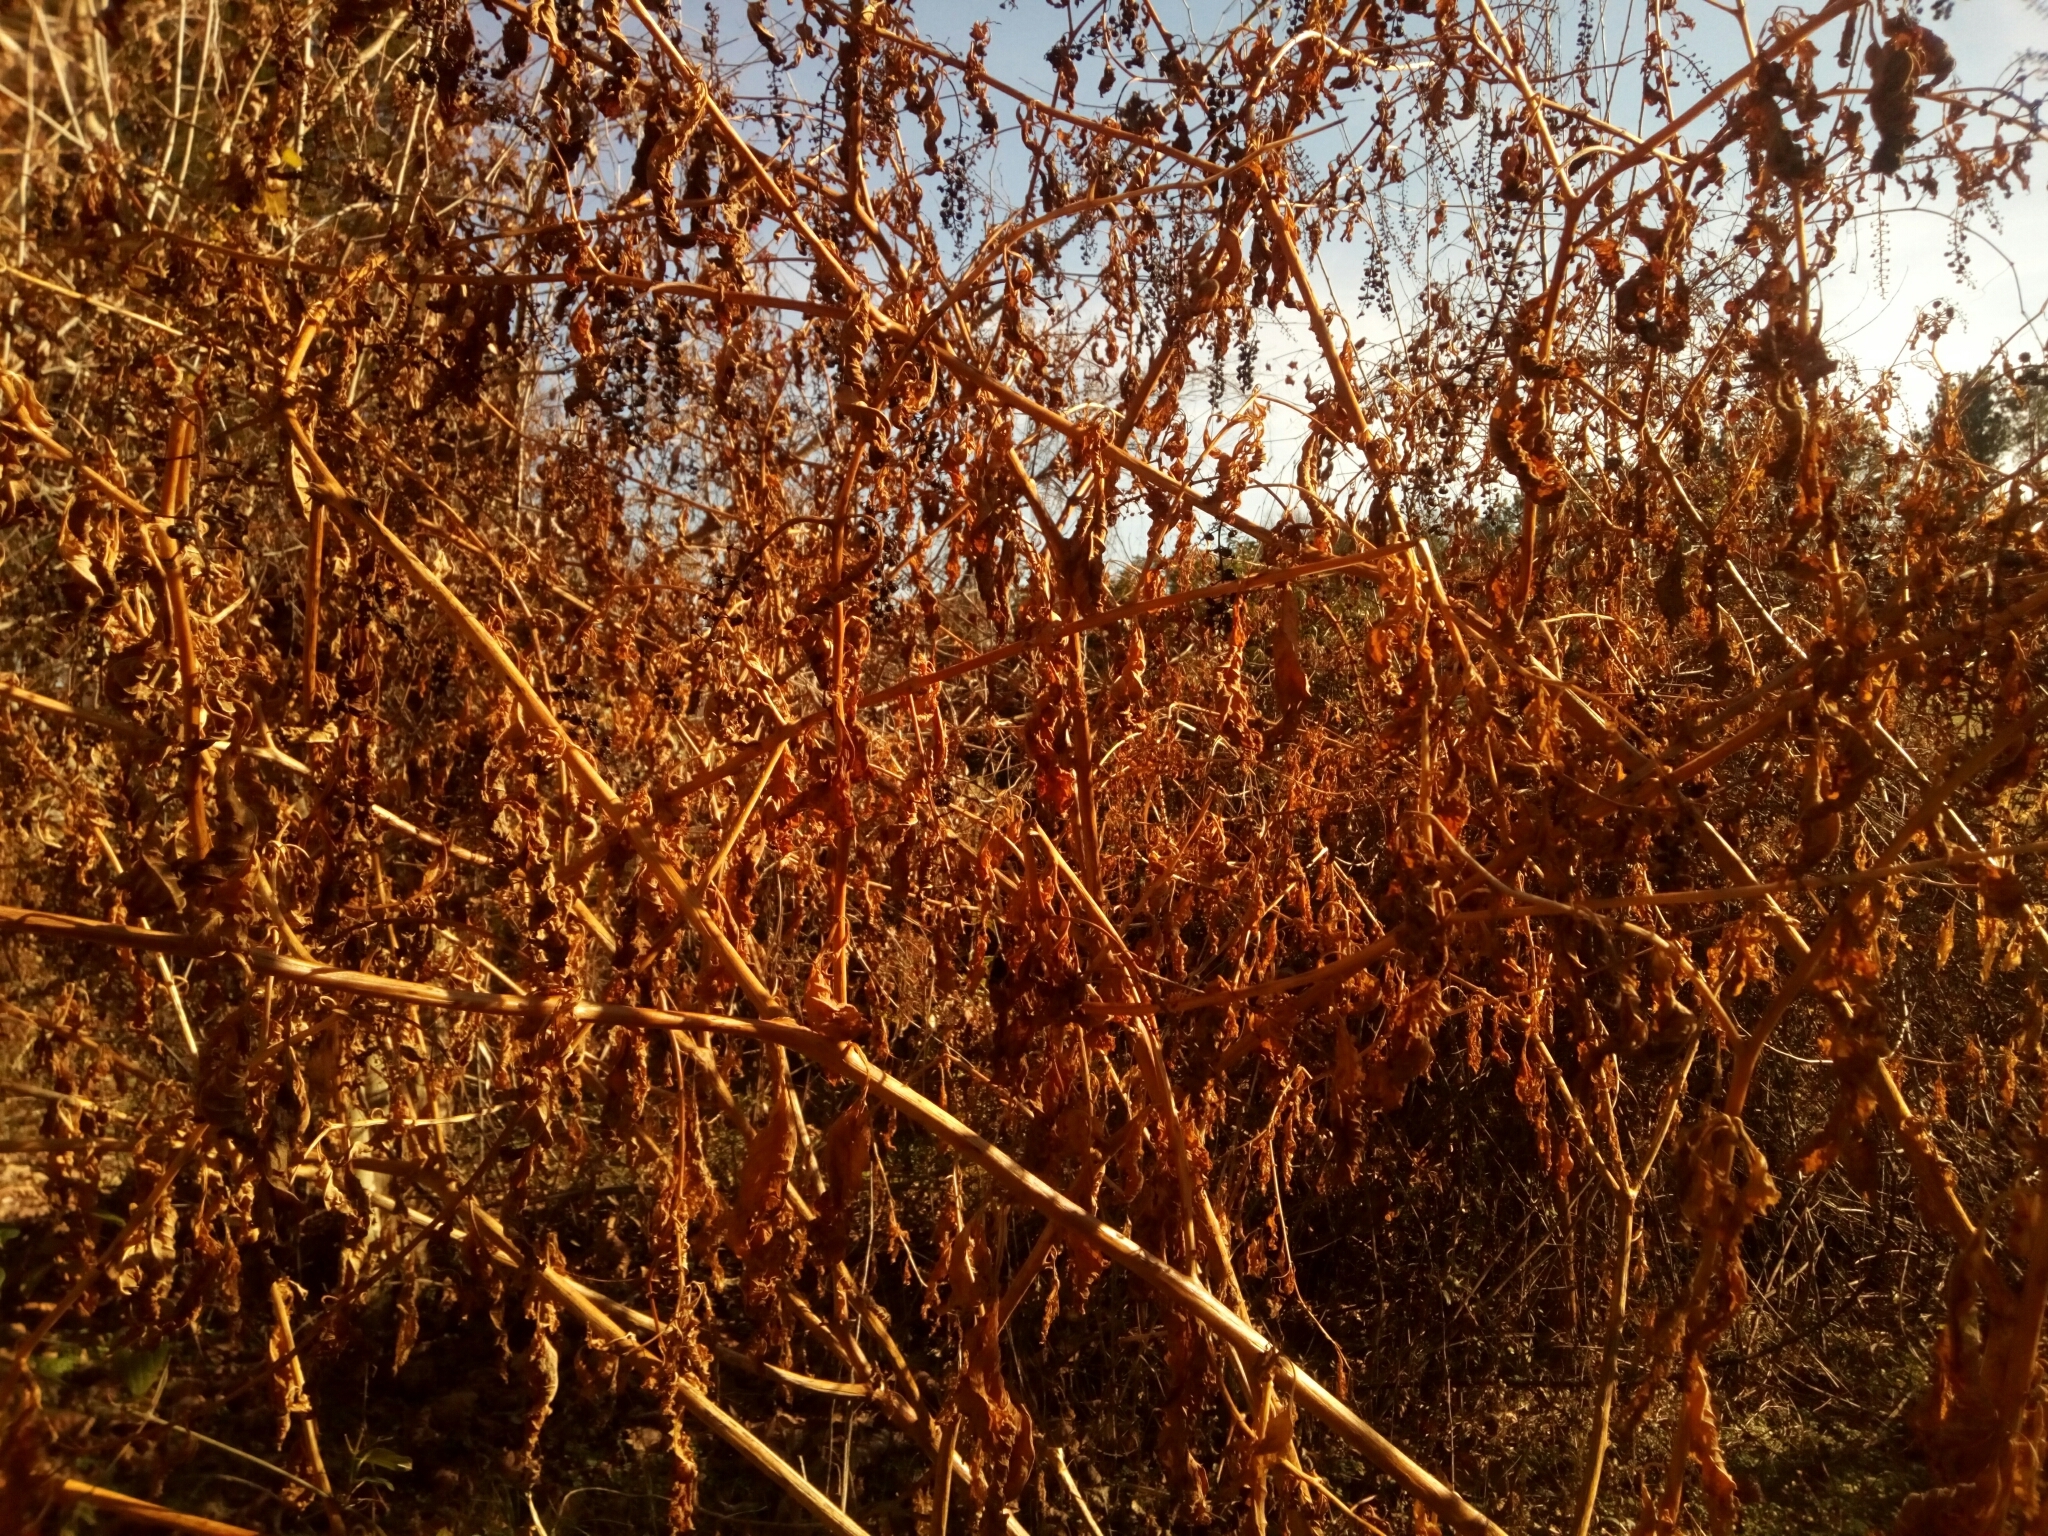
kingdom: Plantae
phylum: Tracheophyta
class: Magnoliopsida
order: Caryophyllales
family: Phytolaccaceae
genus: Phytolacca
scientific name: Phytolacca americana
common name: American pokeweed
